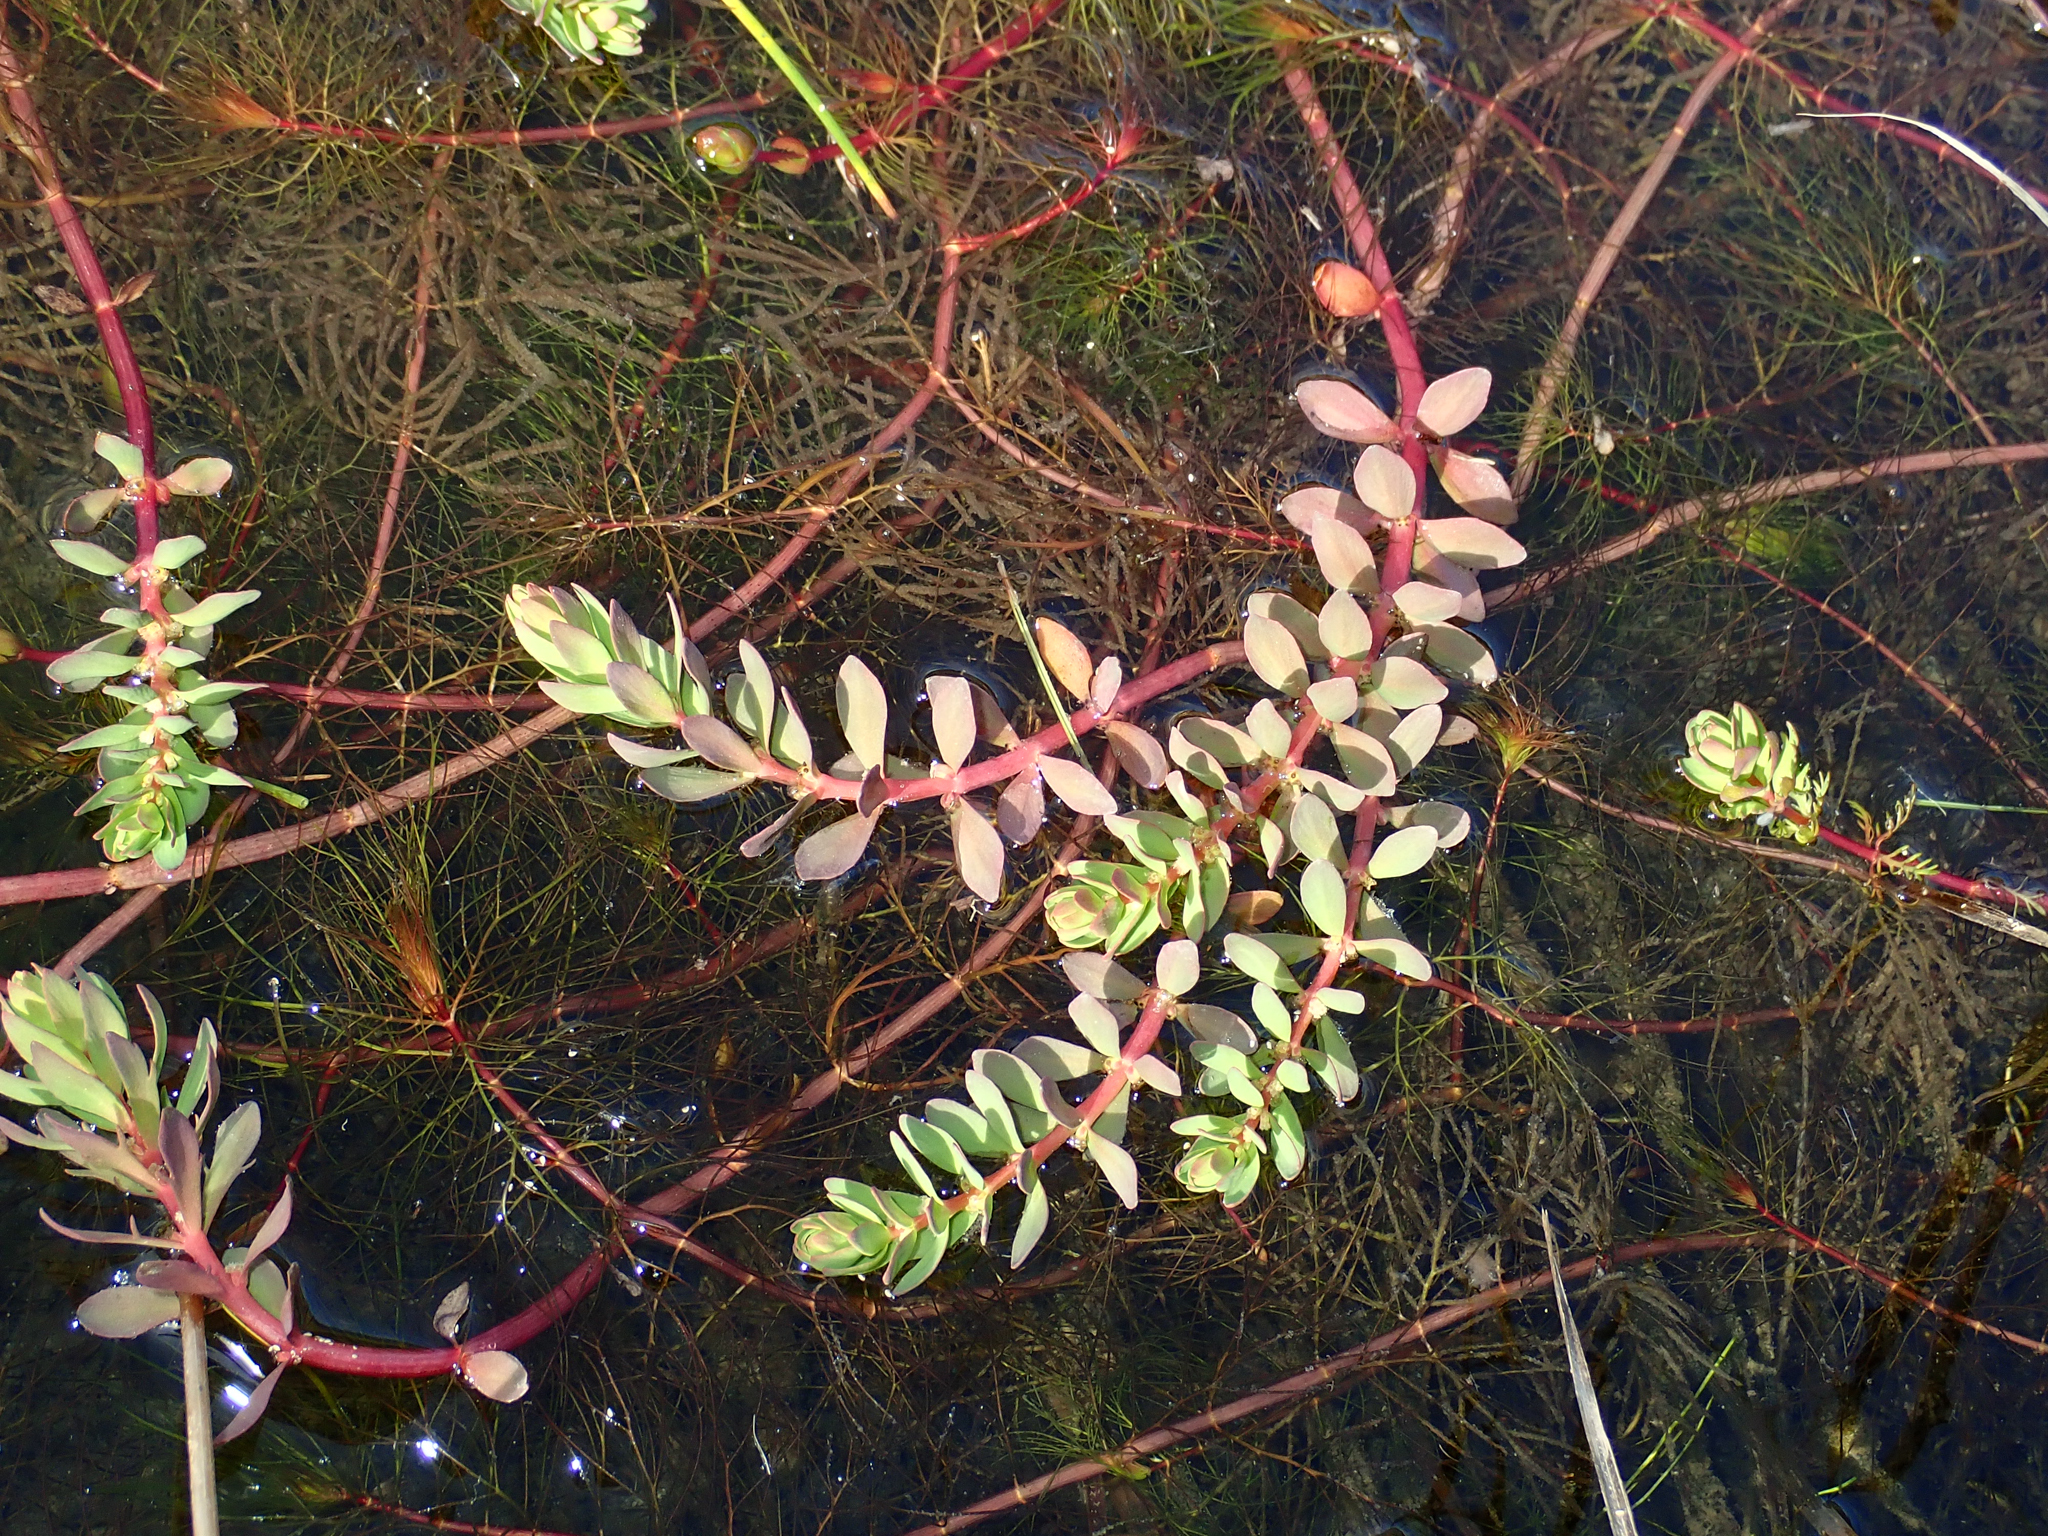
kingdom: Plantae
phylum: Tracheophyta
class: Magnoliopsida
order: Saxifragales
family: Haloragaceae
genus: Myriophyllum
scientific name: Myriophyllum quitense
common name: Andean water milfoil
